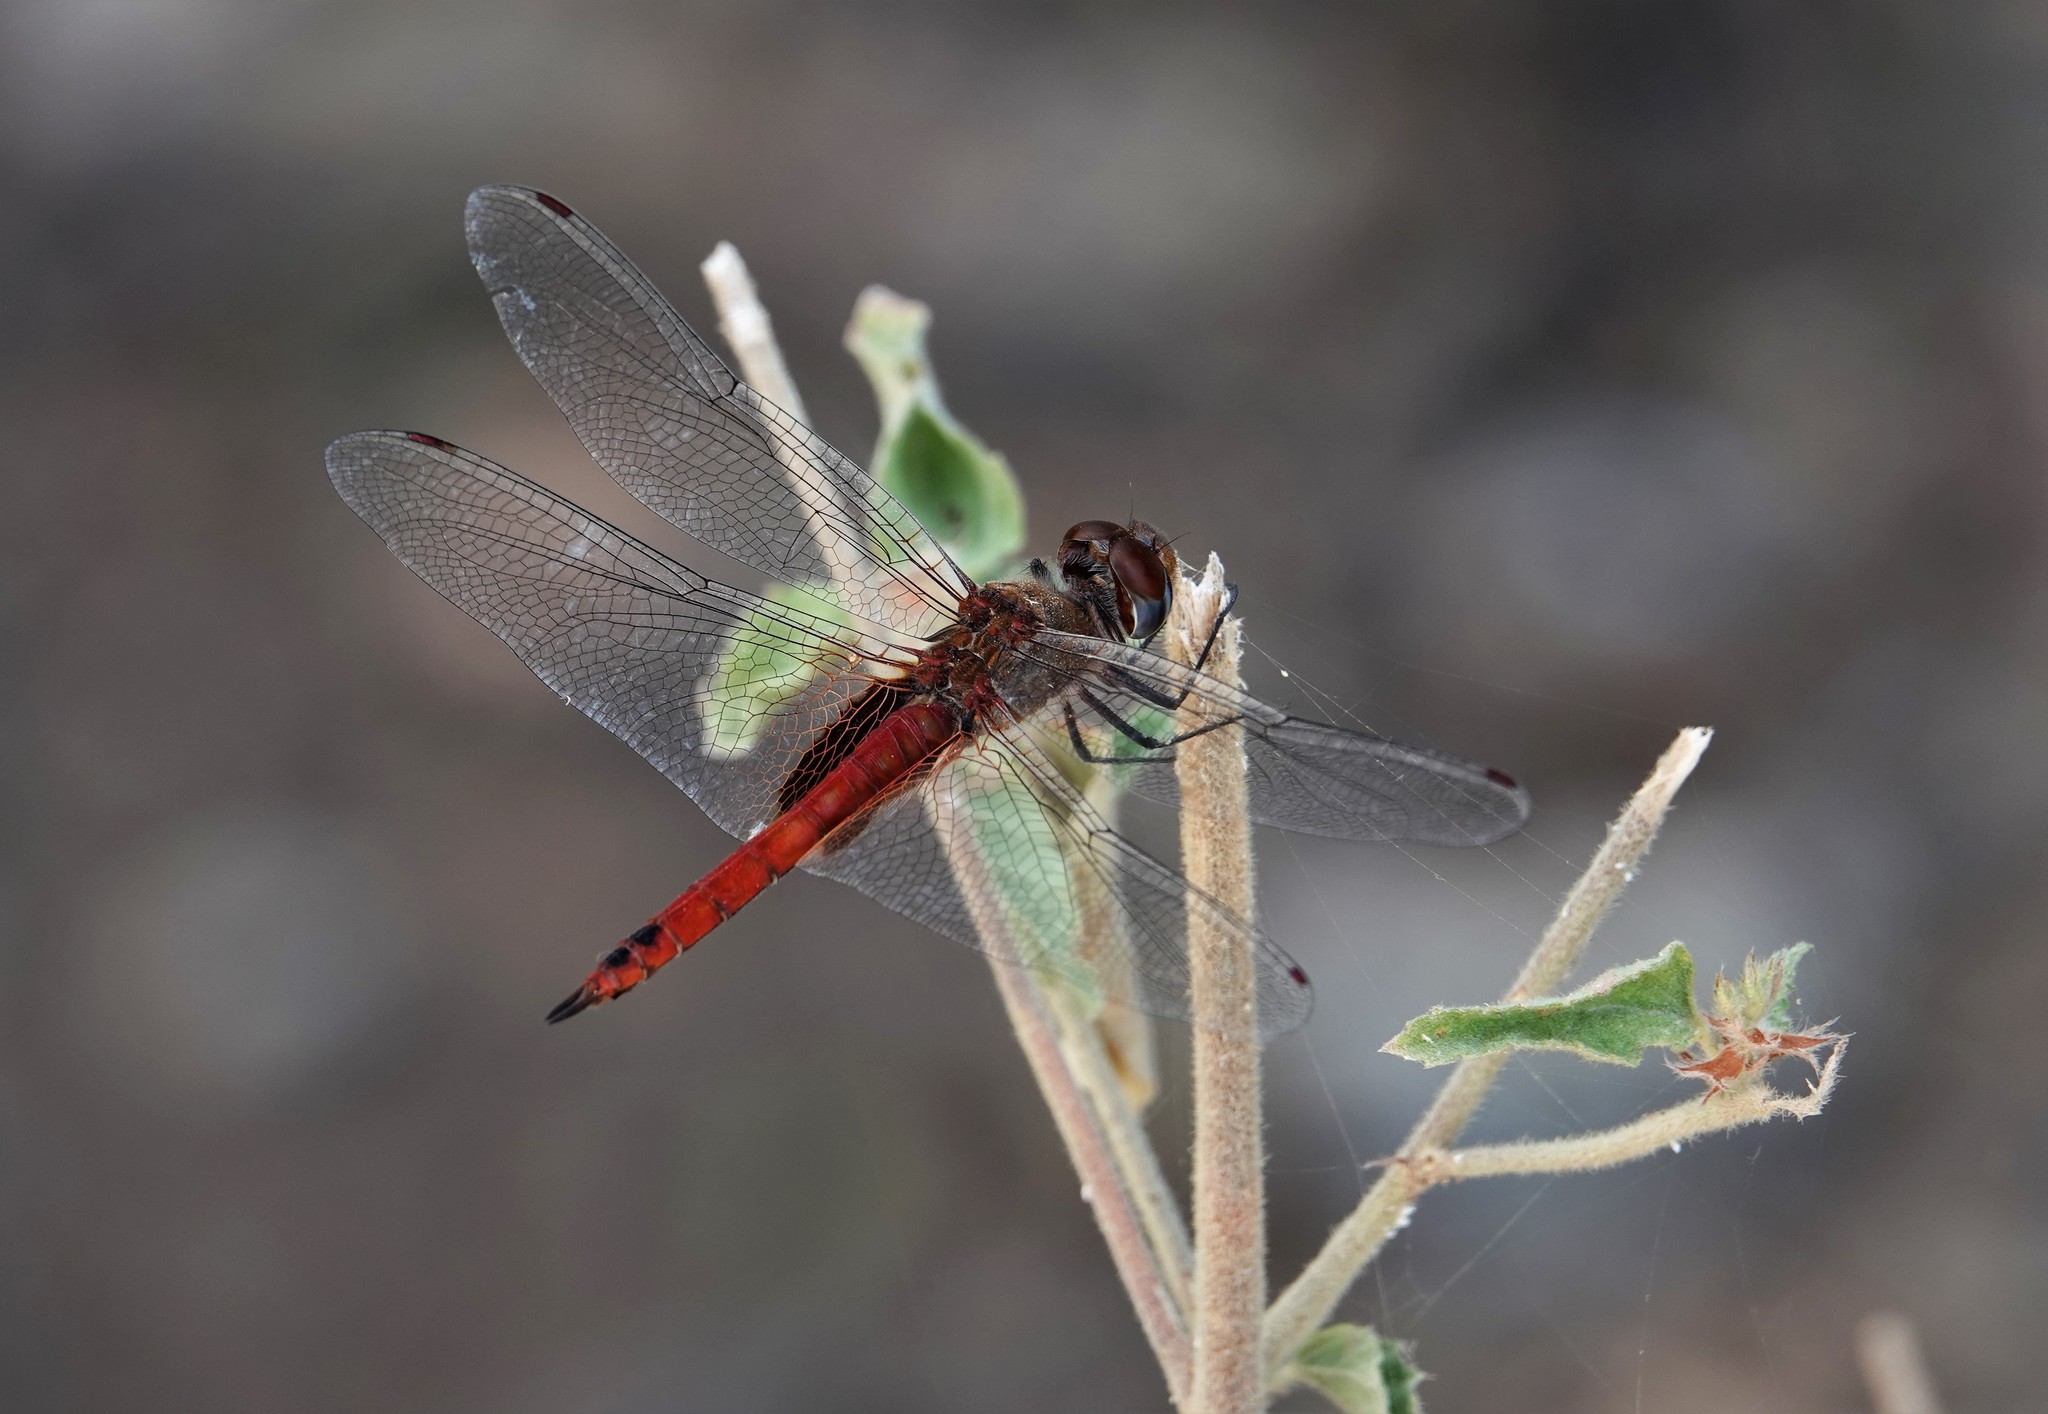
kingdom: Animalia
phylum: Arthropoda
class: Insecta
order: Odonata
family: Libellulidae
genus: Tramea
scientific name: Tramea abdominalis
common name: Vermilion saddlebags
